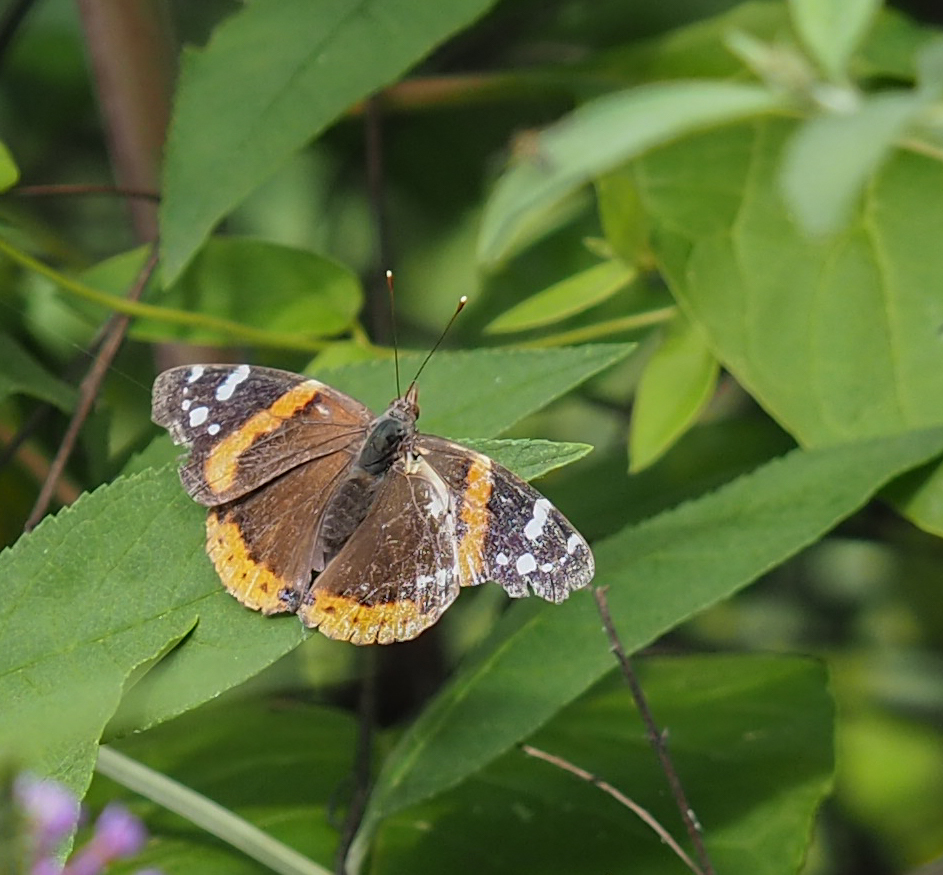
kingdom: Animalia
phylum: Arthropoda
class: Insecta
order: Lepidoptera
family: Nymphalidae
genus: Vanessa
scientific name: Vanessa atalanta
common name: Red admiral
